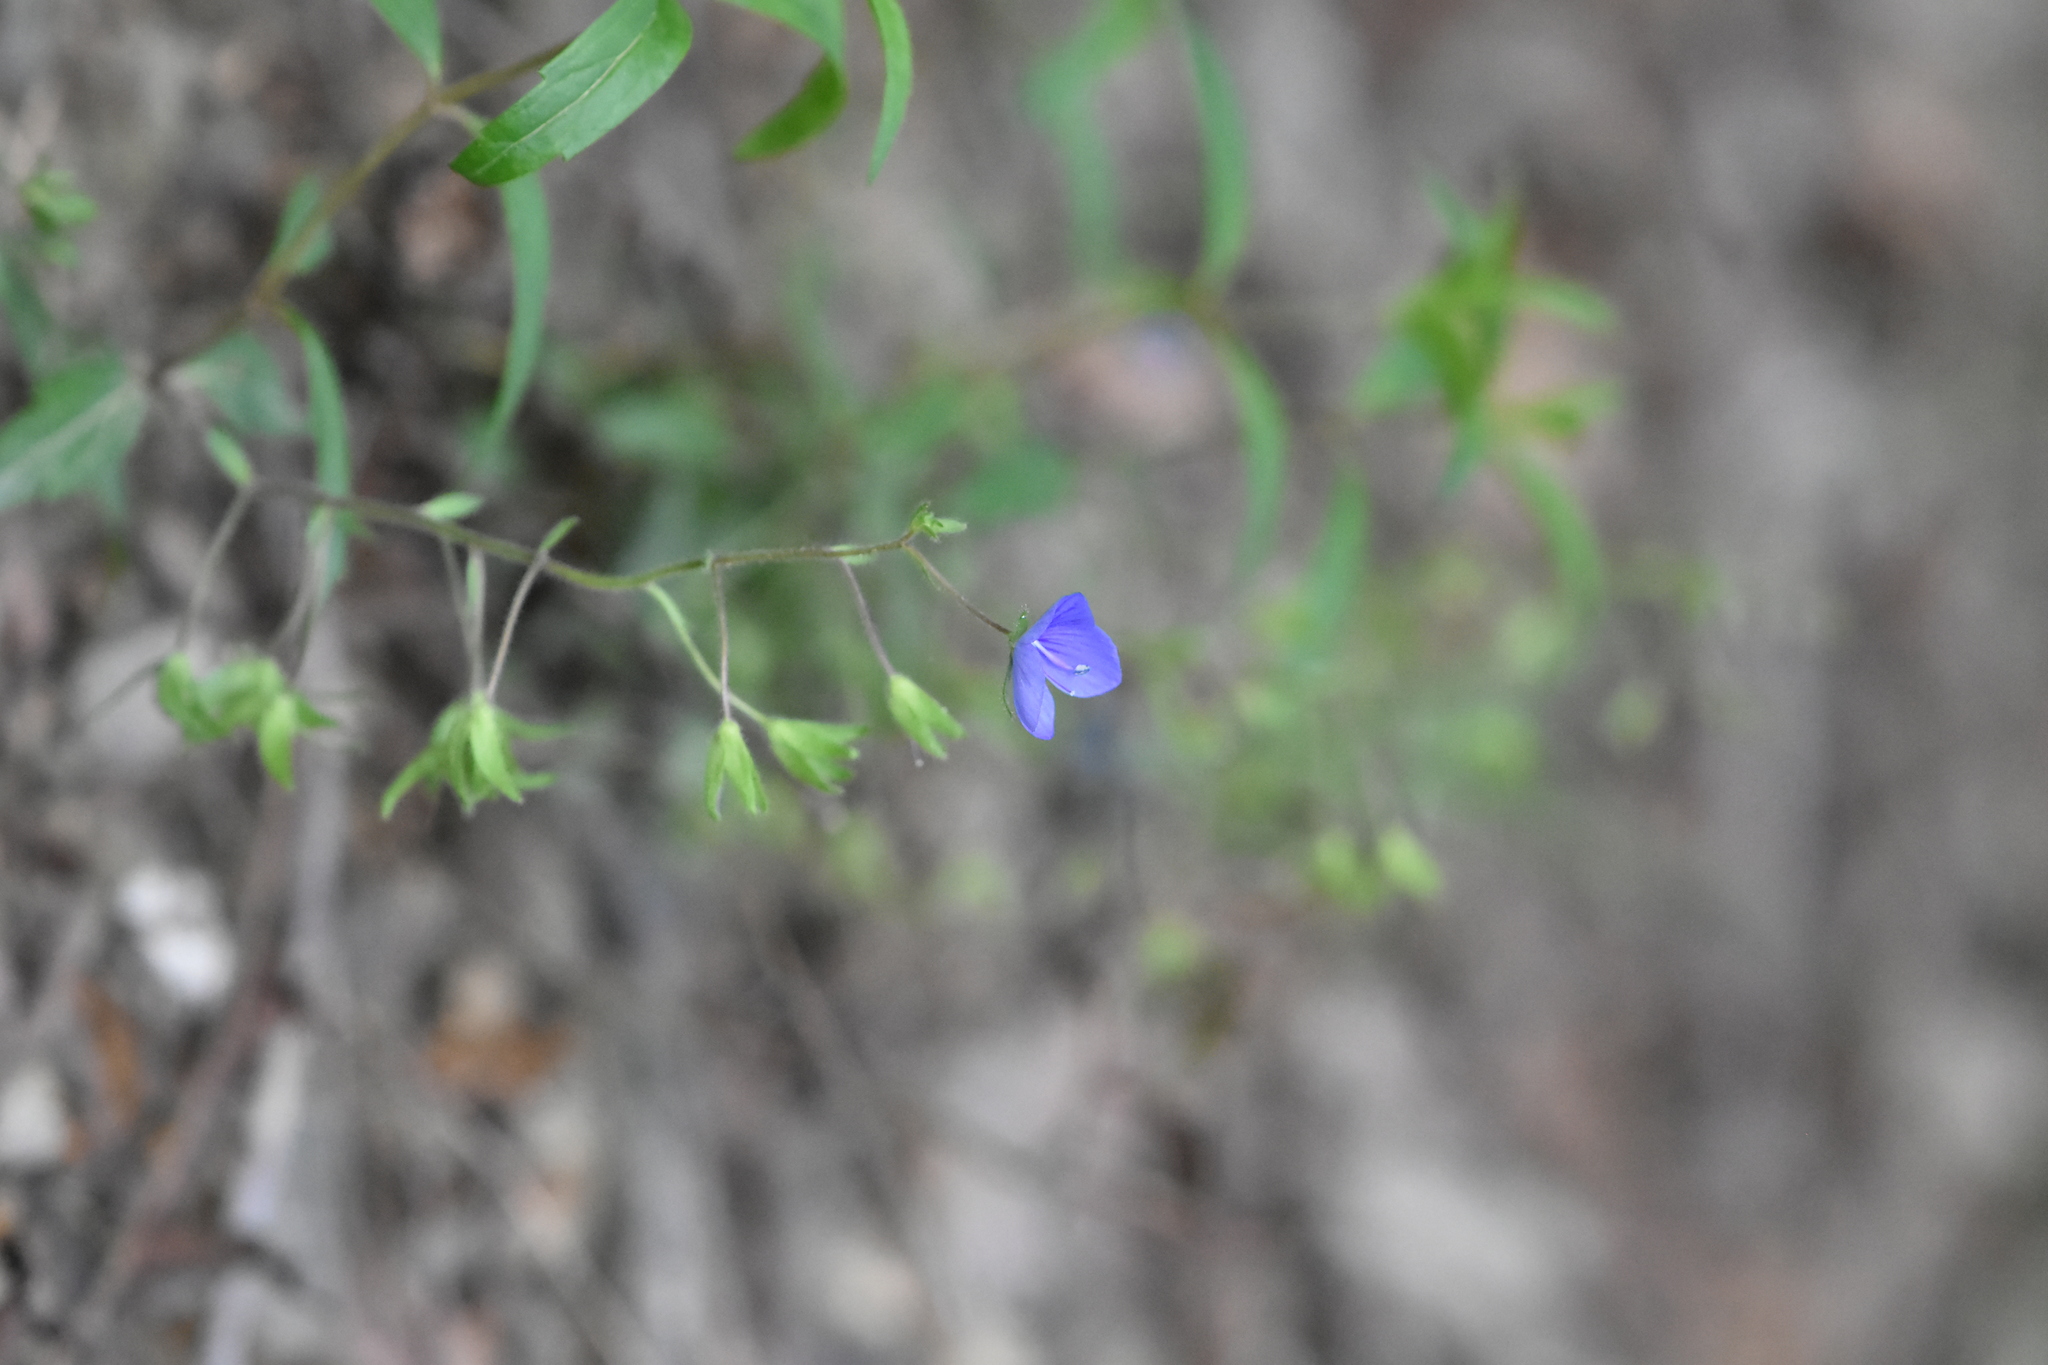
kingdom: Plantae
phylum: Tracheophyta
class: Magnoliopsida
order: Lamiales
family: Plantaginaceae
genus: Veronica
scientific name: Veronica
